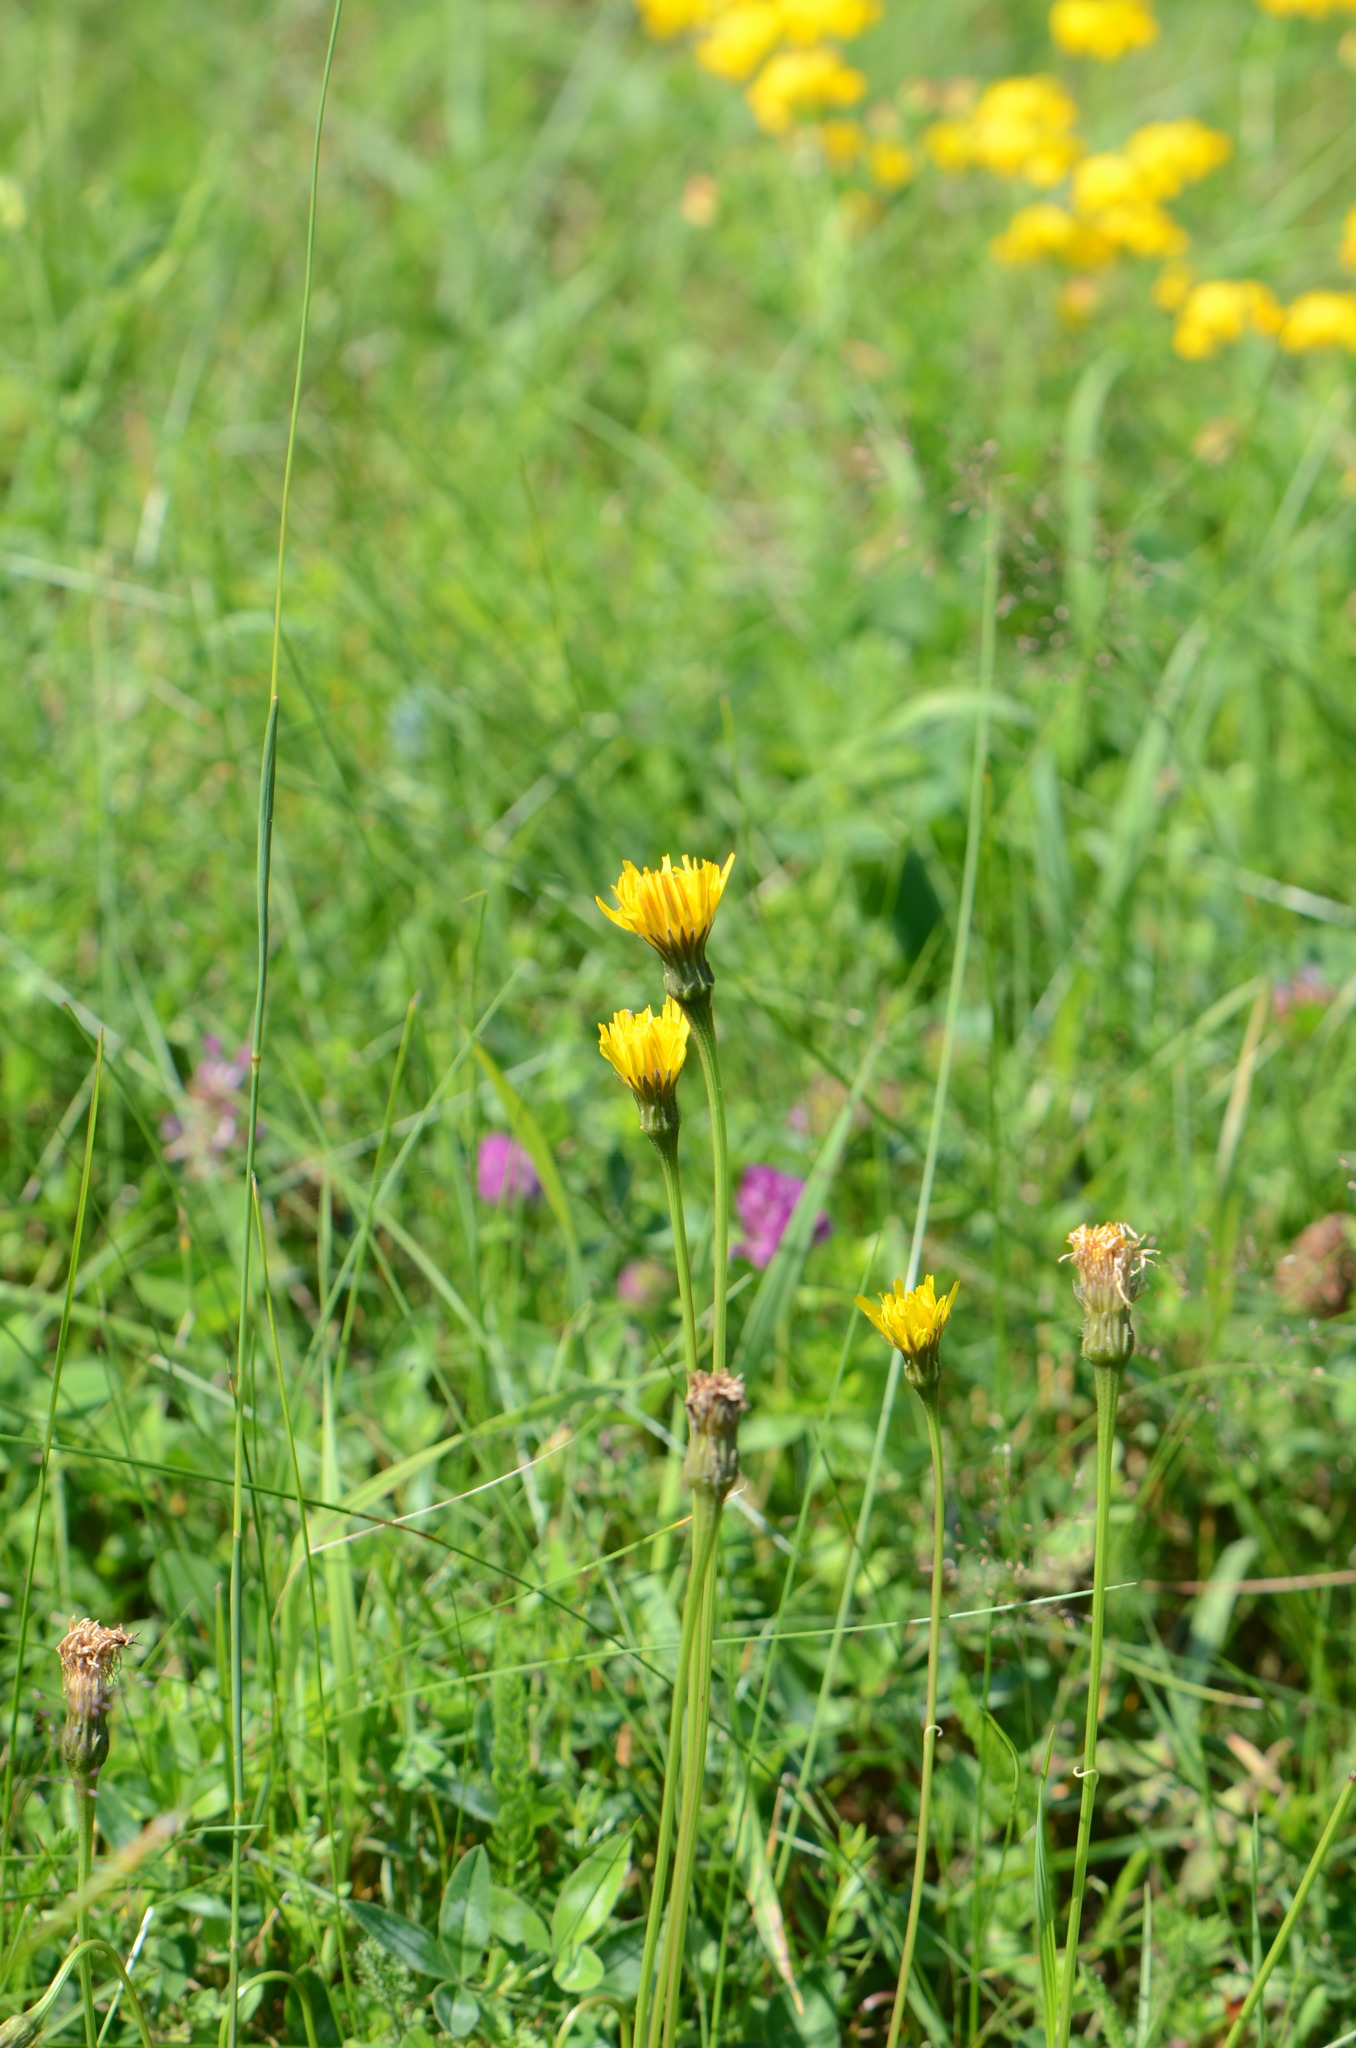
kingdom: Plantae
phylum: Tracheophyta
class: Magnoliopsida
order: Asterales
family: Asteraceae
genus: Leontodon
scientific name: Leontodon hispidus
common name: Rough hawkbit
